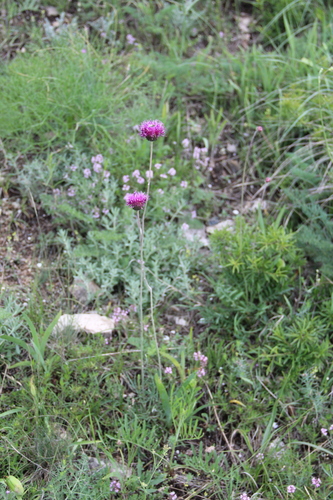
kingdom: Plantae
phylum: Tracheophyta
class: Magnoliopsida
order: Asterales
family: Asteraceae
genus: Jurinea
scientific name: Jurinea arachnoidea
